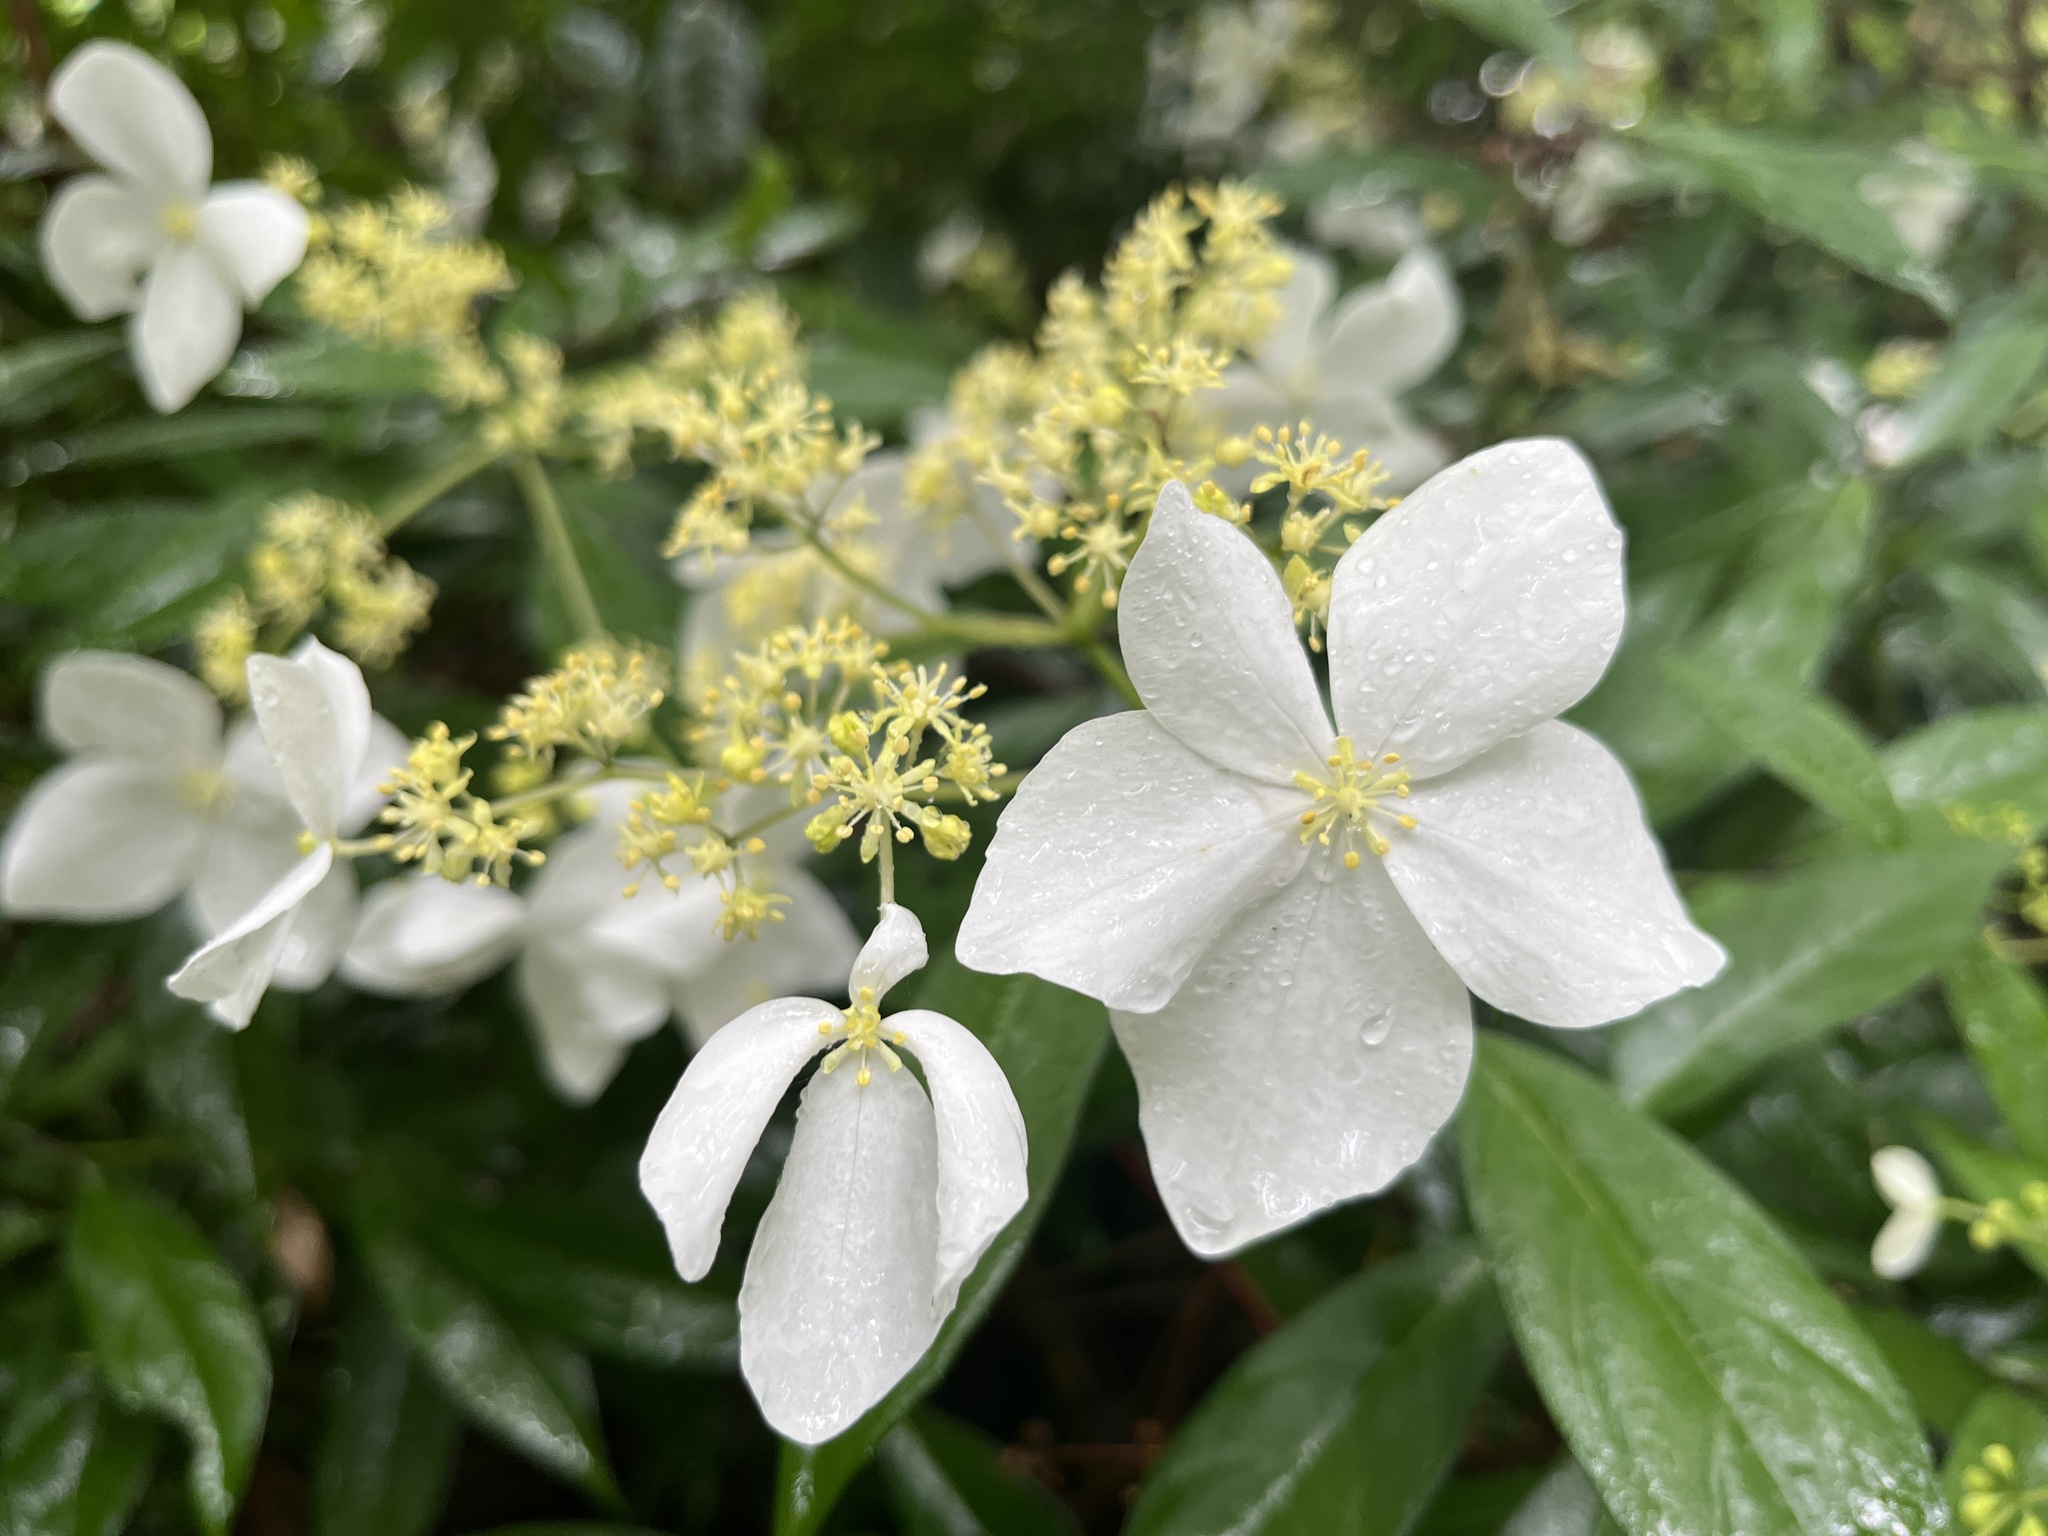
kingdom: Plantae
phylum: Tracheophyta
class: Magnoliopsida
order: Cornales
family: Hydrangeaceae
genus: Hydrangea
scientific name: Hydrangea chinensis
